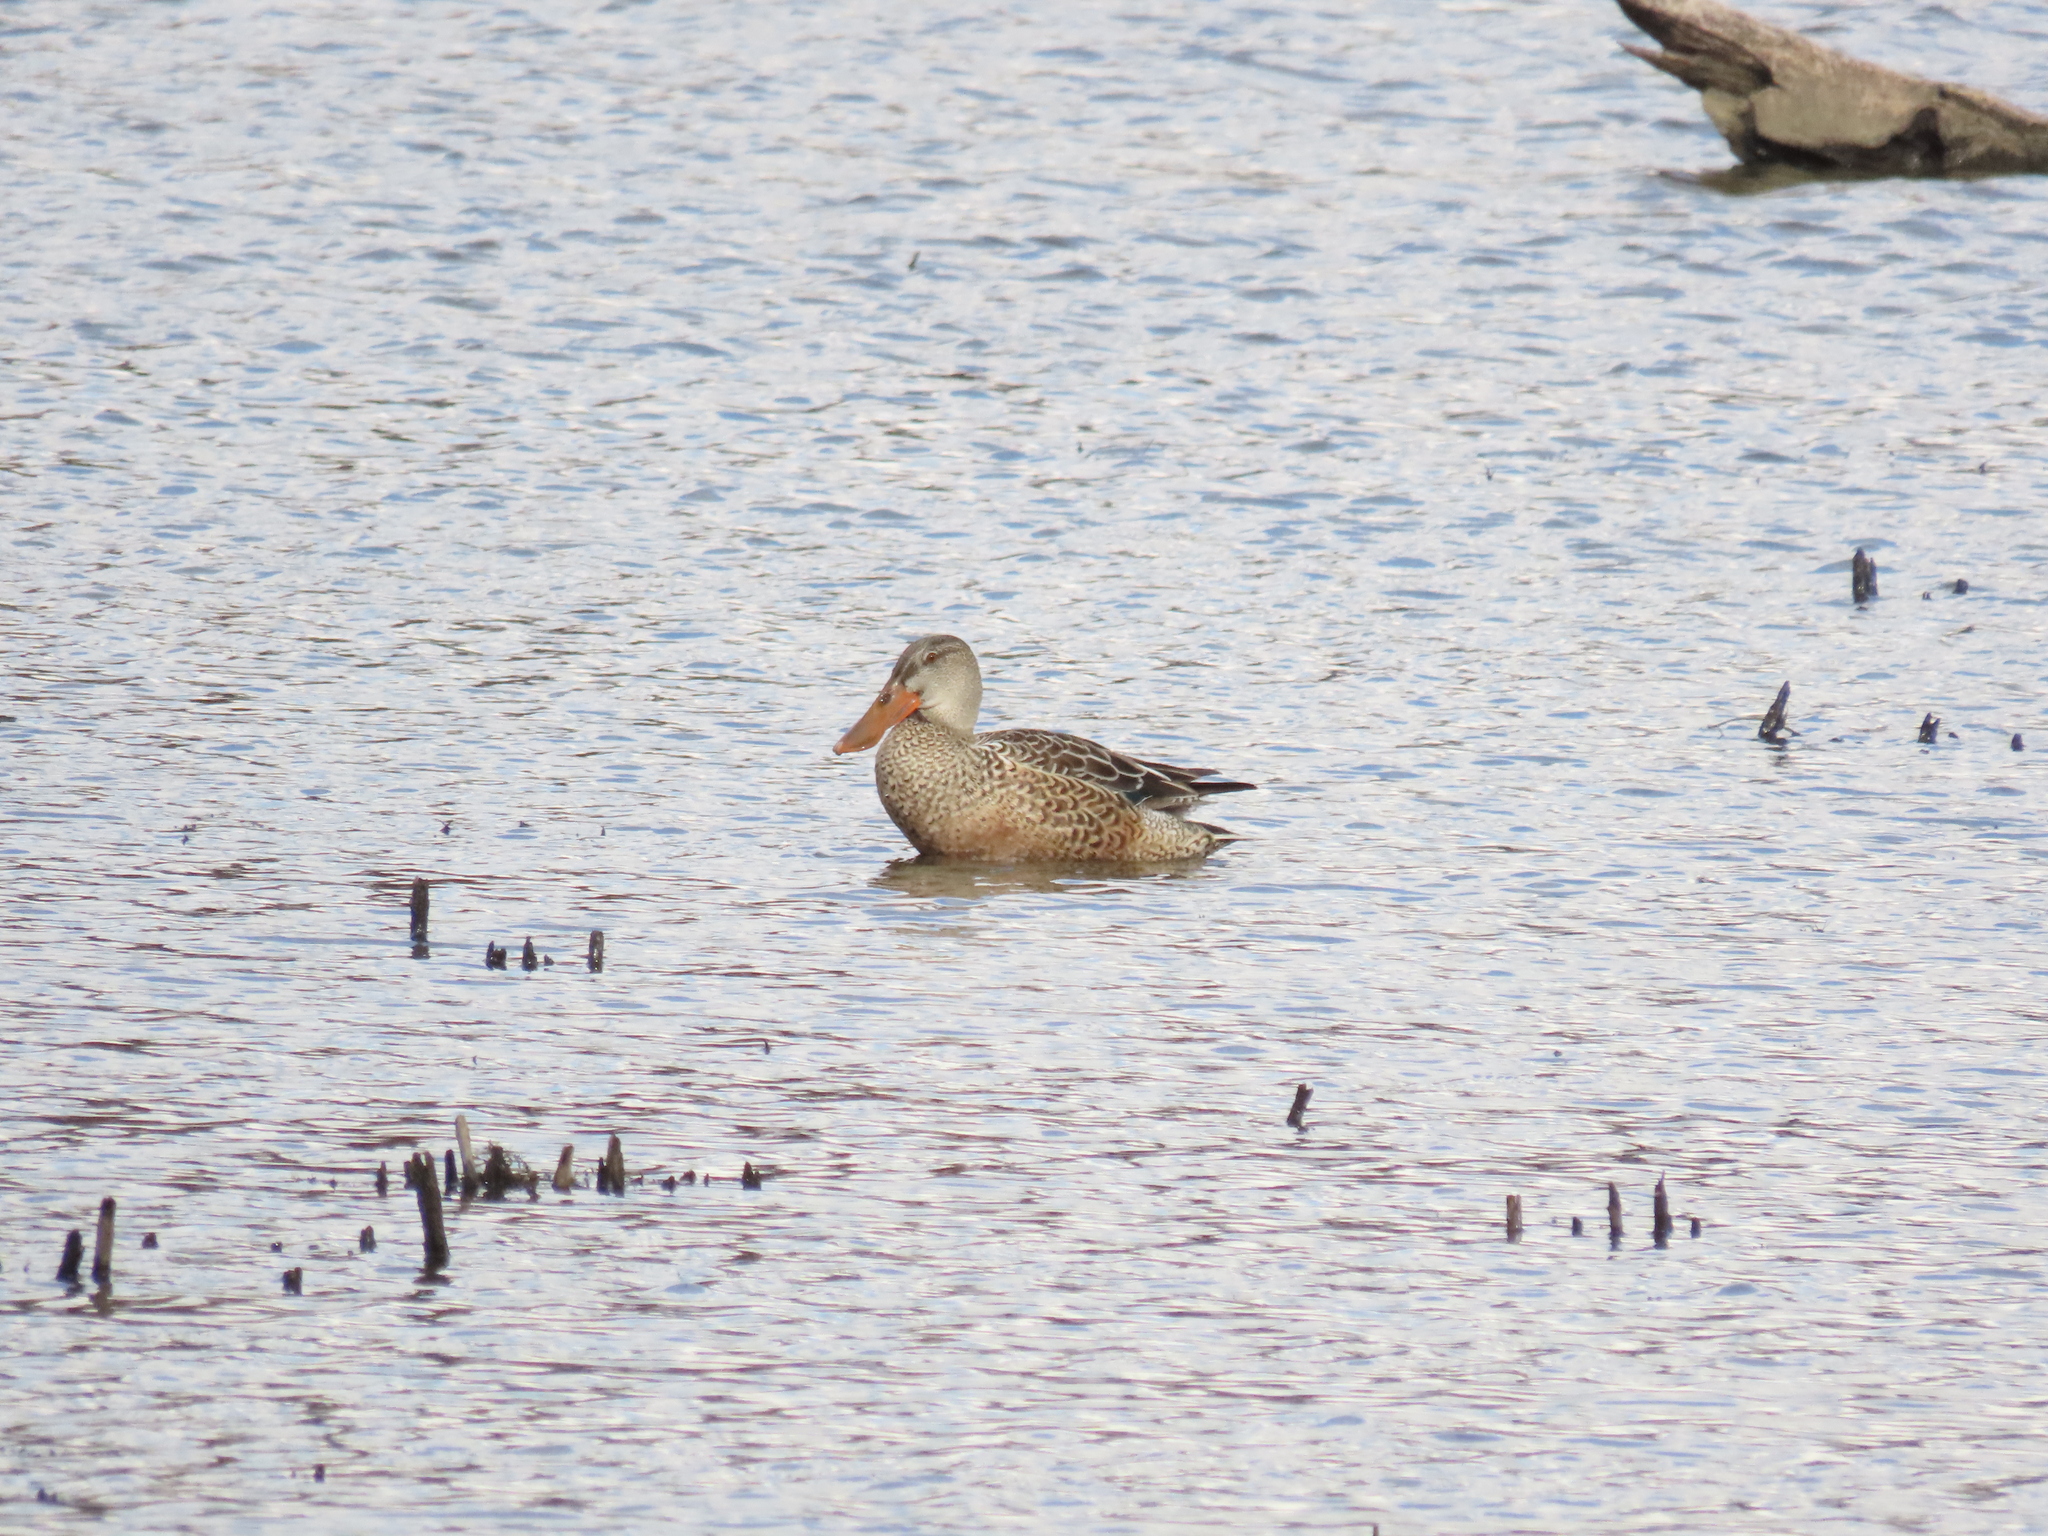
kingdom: Animalia
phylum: Chordata
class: Aves
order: Anseriformes
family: Anatidae
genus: Spatula
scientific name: Spatula clypeata
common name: Northern shoveler
